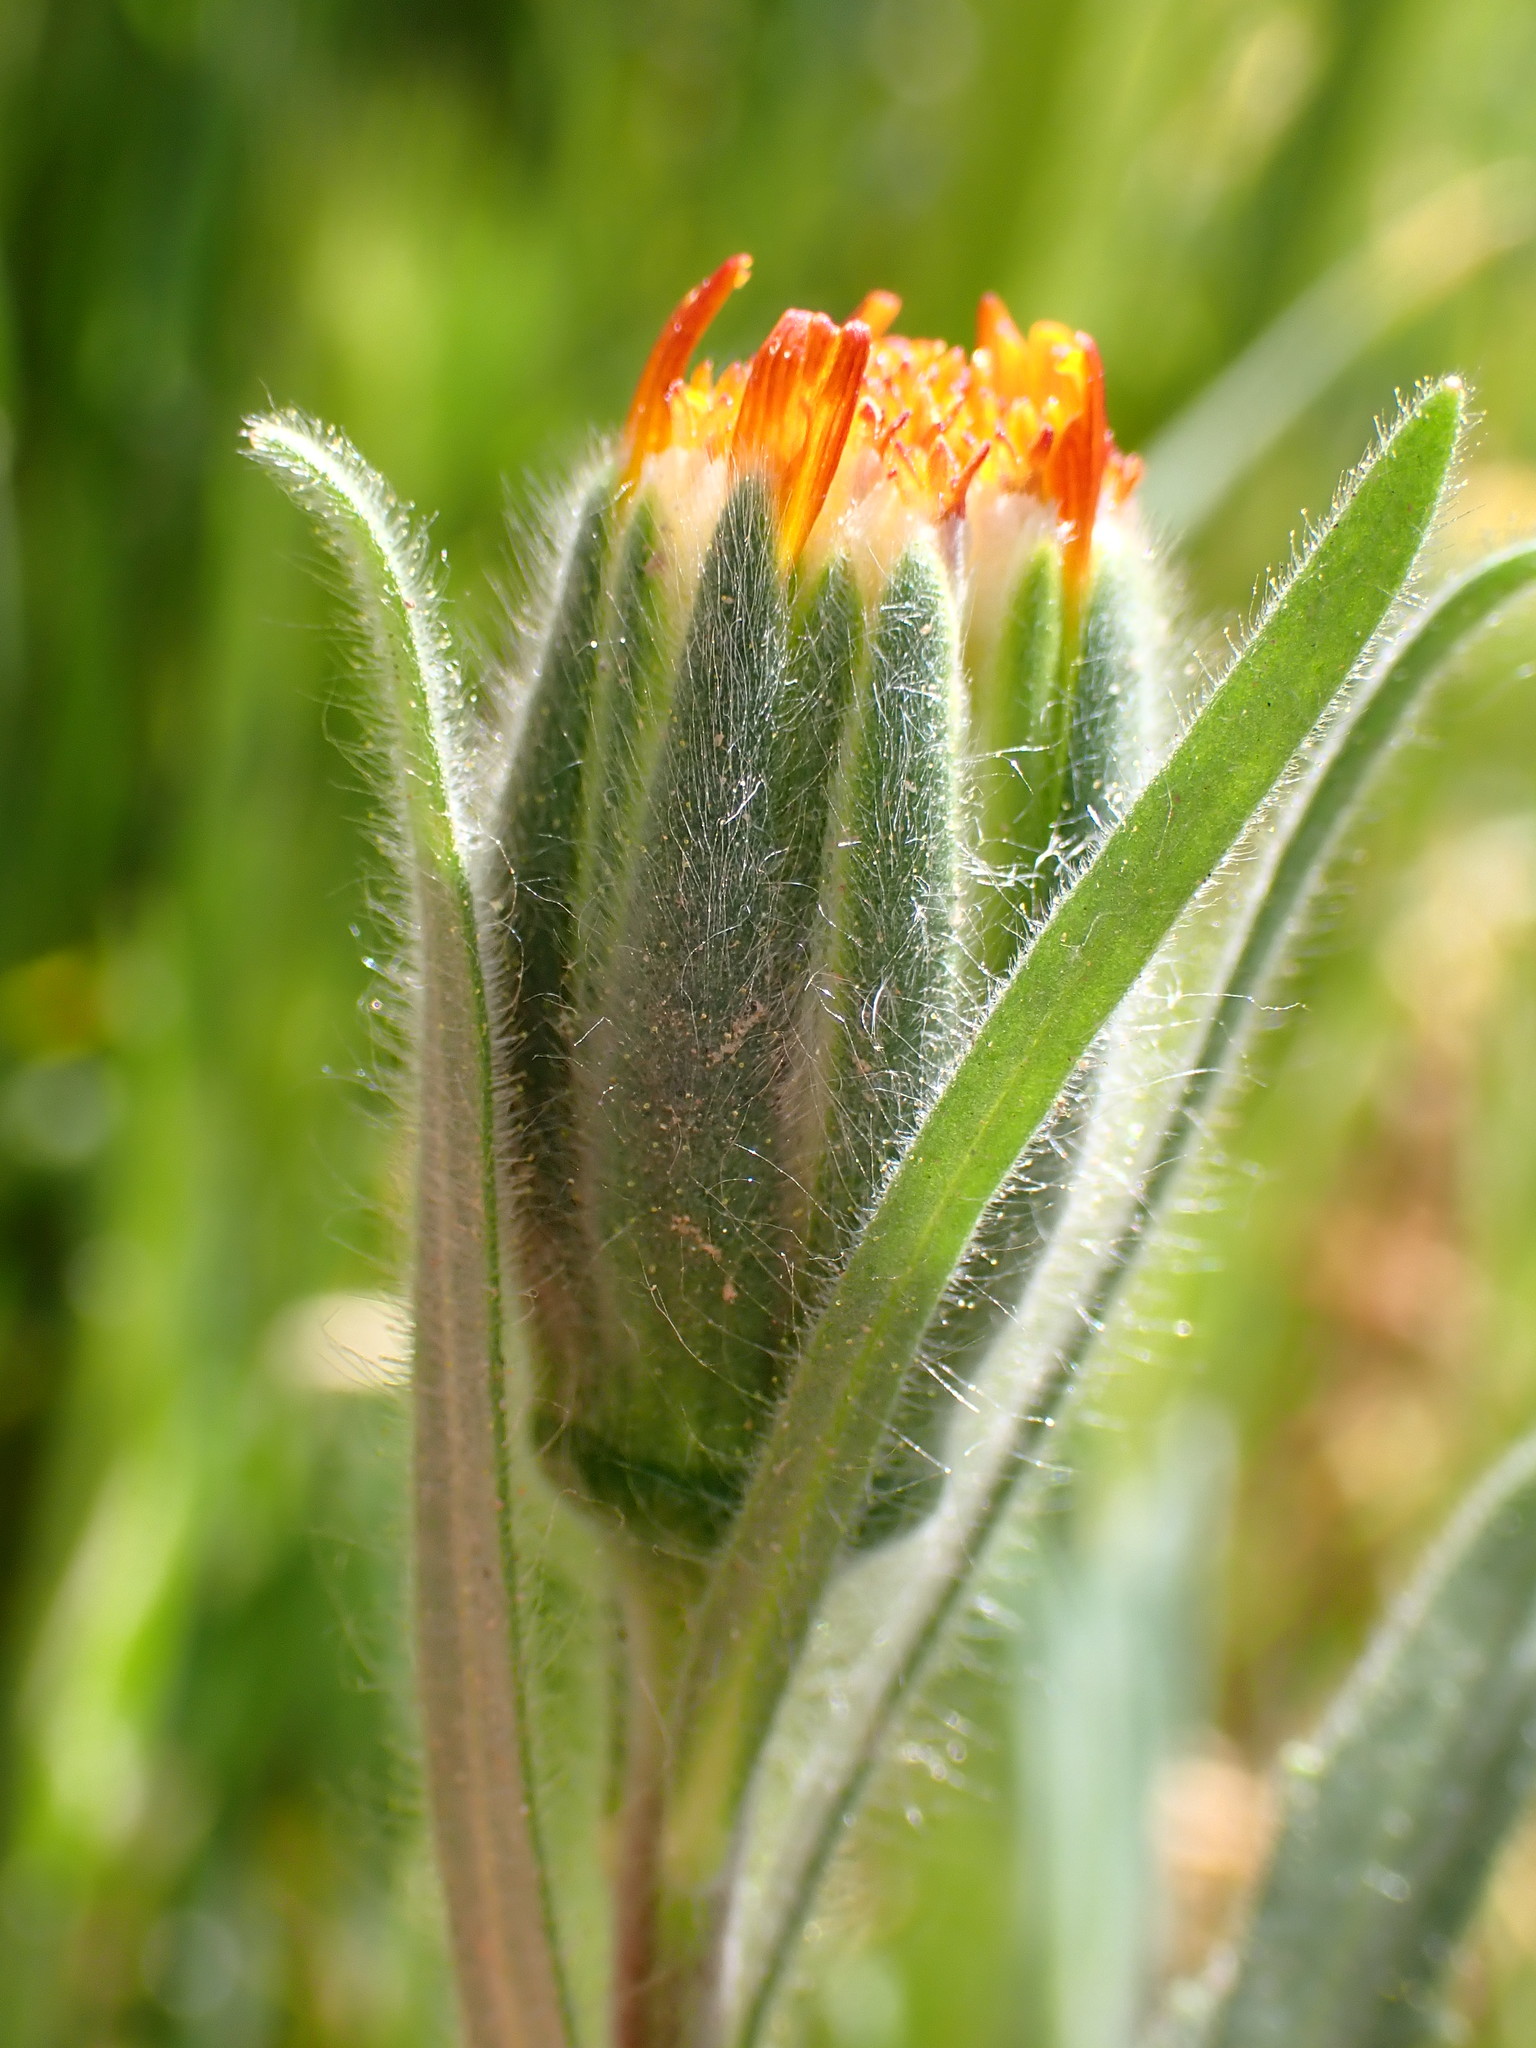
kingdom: Plantae
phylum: Tracheophyta
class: Magnoliopsida
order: Asterales
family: Asteraceae
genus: Achyrachaena
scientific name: Achyrachaena mollis
